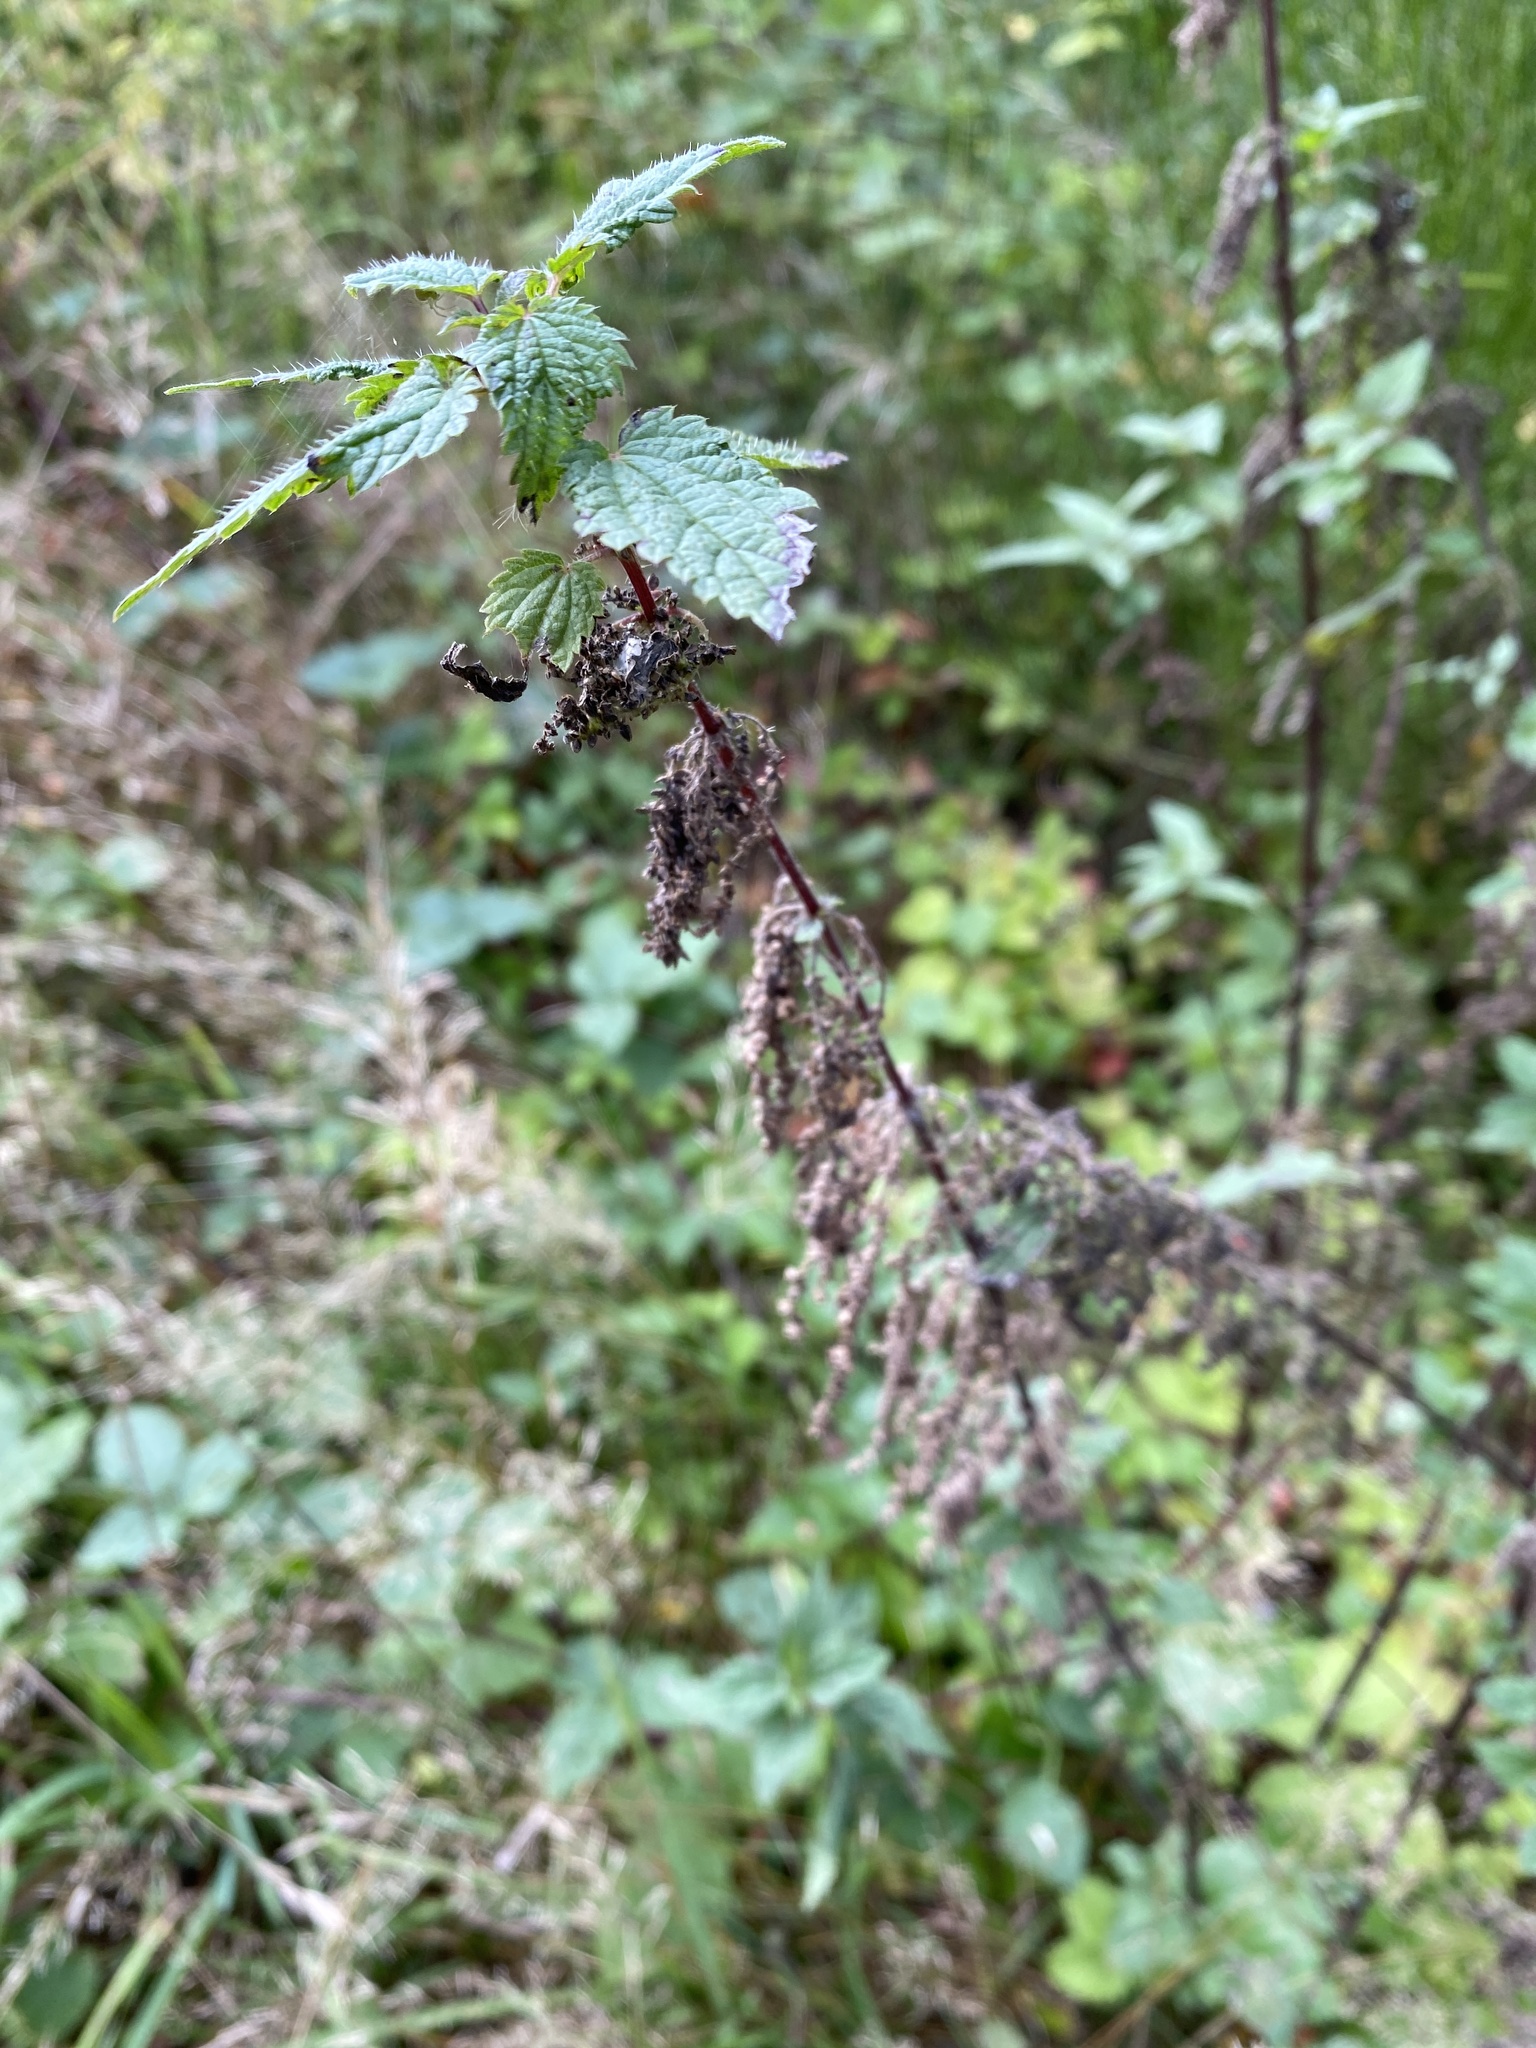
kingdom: Plantae
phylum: Tracheophyta
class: Magnoliopsida
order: Rosales
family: Urticaceae
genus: Urtica
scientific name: Urtica dioica
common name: Common nettle
